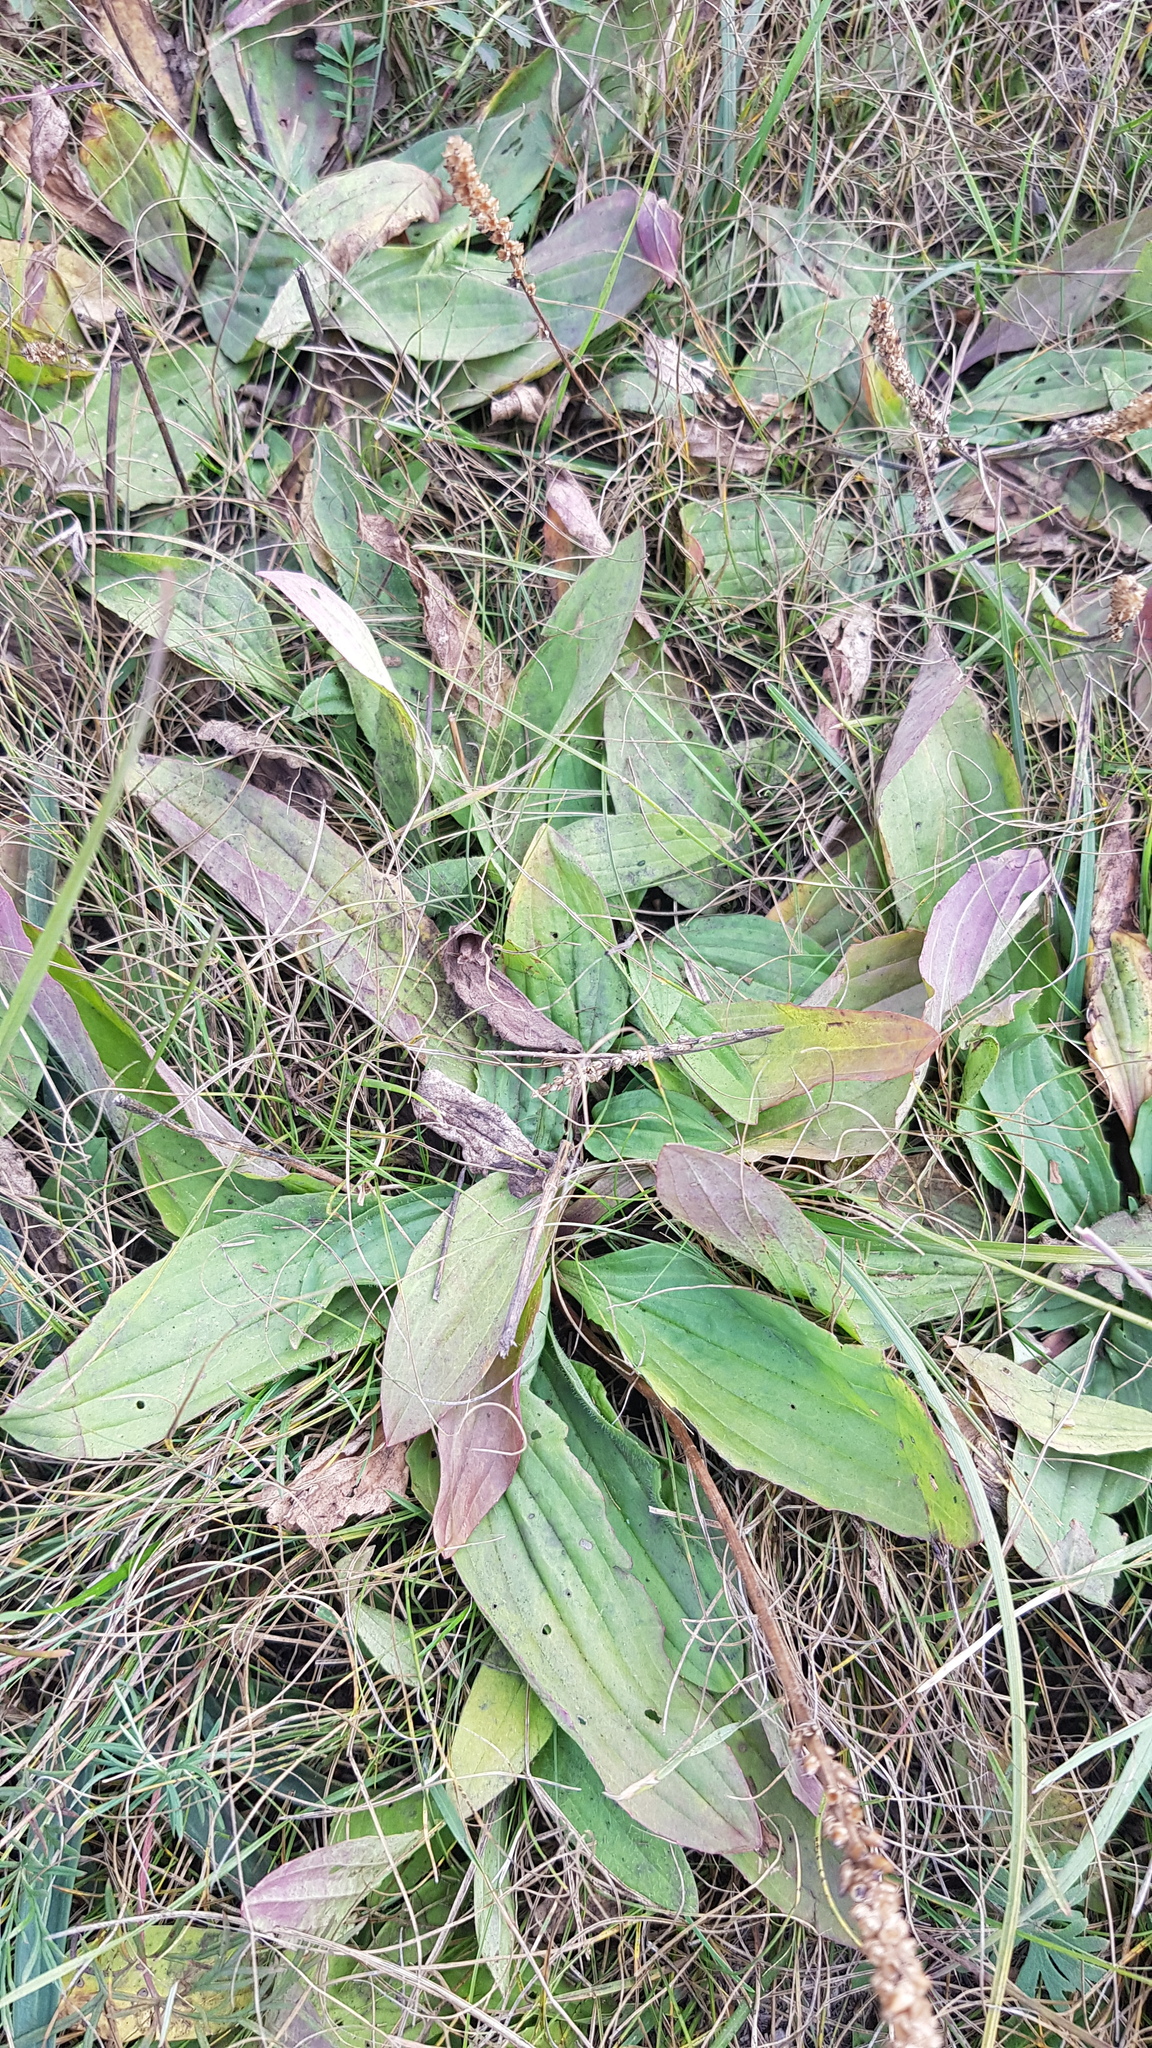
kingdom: Plantae
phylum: Tracheophyta
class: Magnoliopsida
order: Lamiales
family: Plantaginaceae
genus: Plantago
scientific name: Plantago depressa
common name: Depressed plantain
